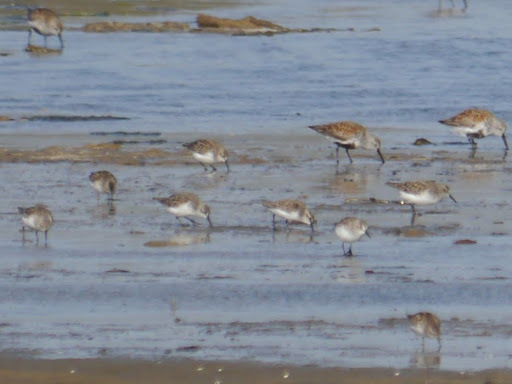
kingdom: Animalia
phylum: Chordata
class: Aves
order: Charadriiformes
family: Scolopacidae
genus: Calidris
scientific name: Calidris pusilla
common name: Semipalmated sandpiper
